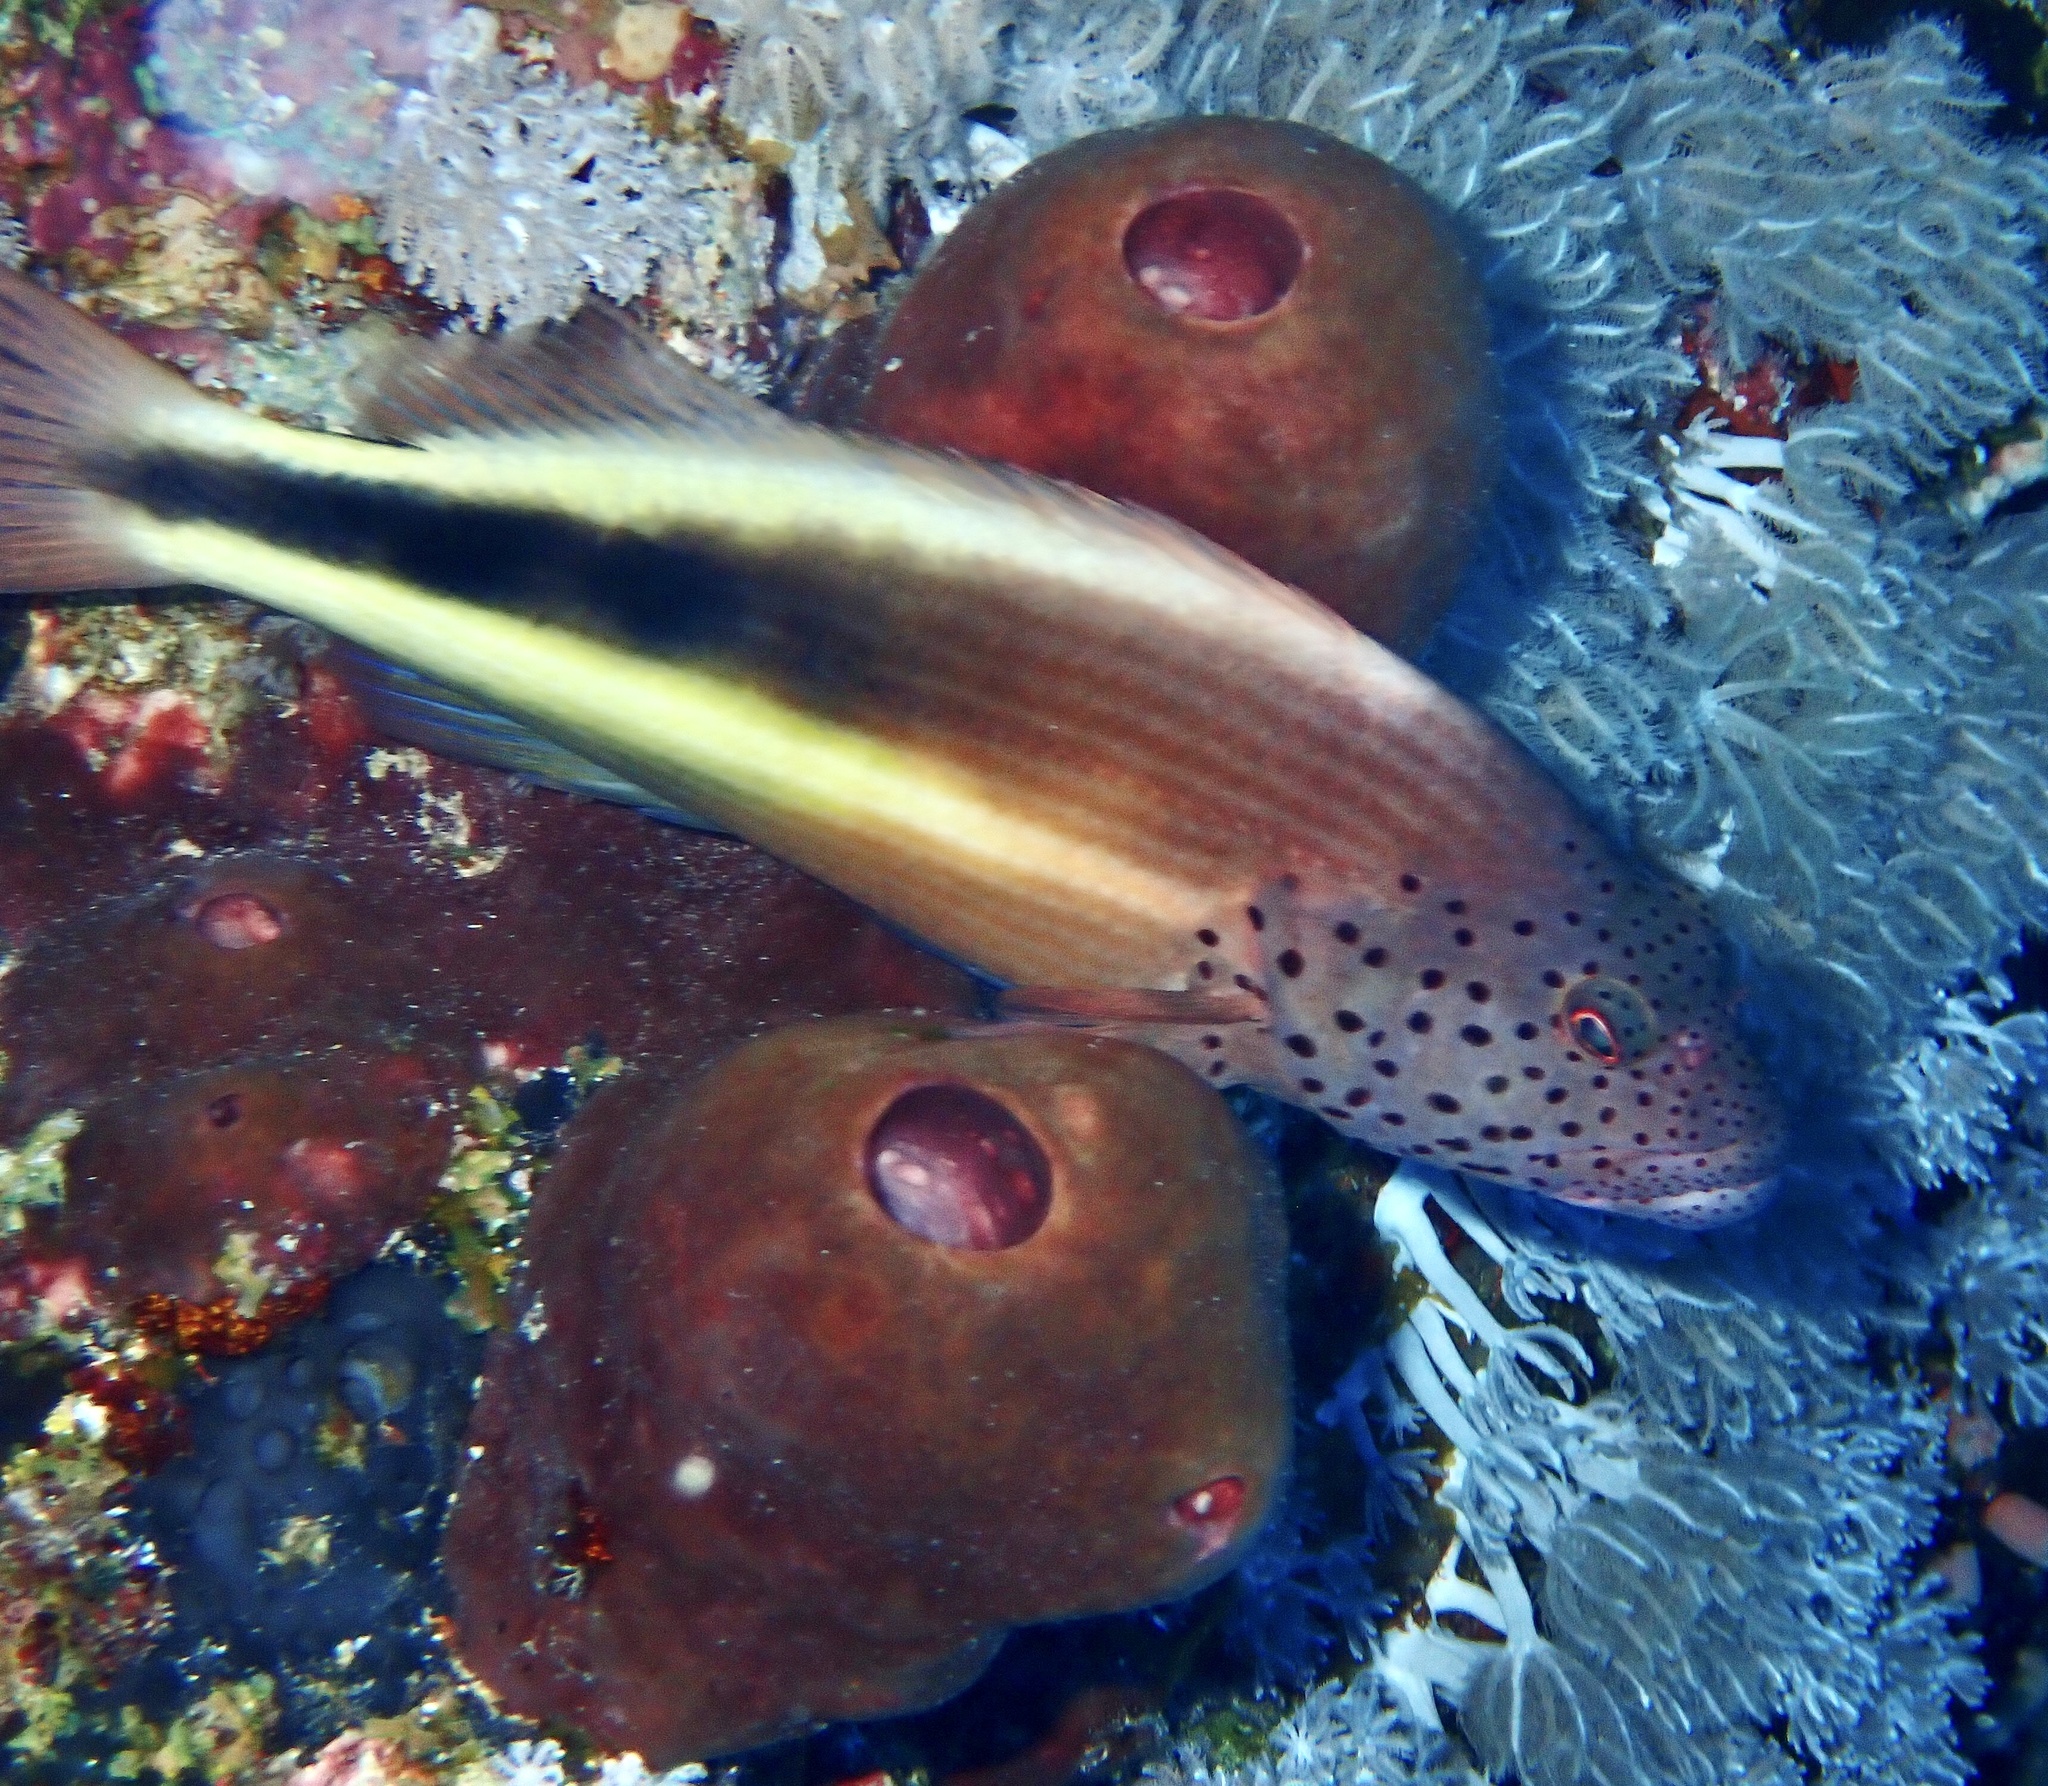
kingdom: Animalia
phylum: Chordata
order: Perciformes
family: Cirrhitidae
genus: Paracirrhites
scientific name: Paracirrhites forsteri
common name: Freckled hawkfish
